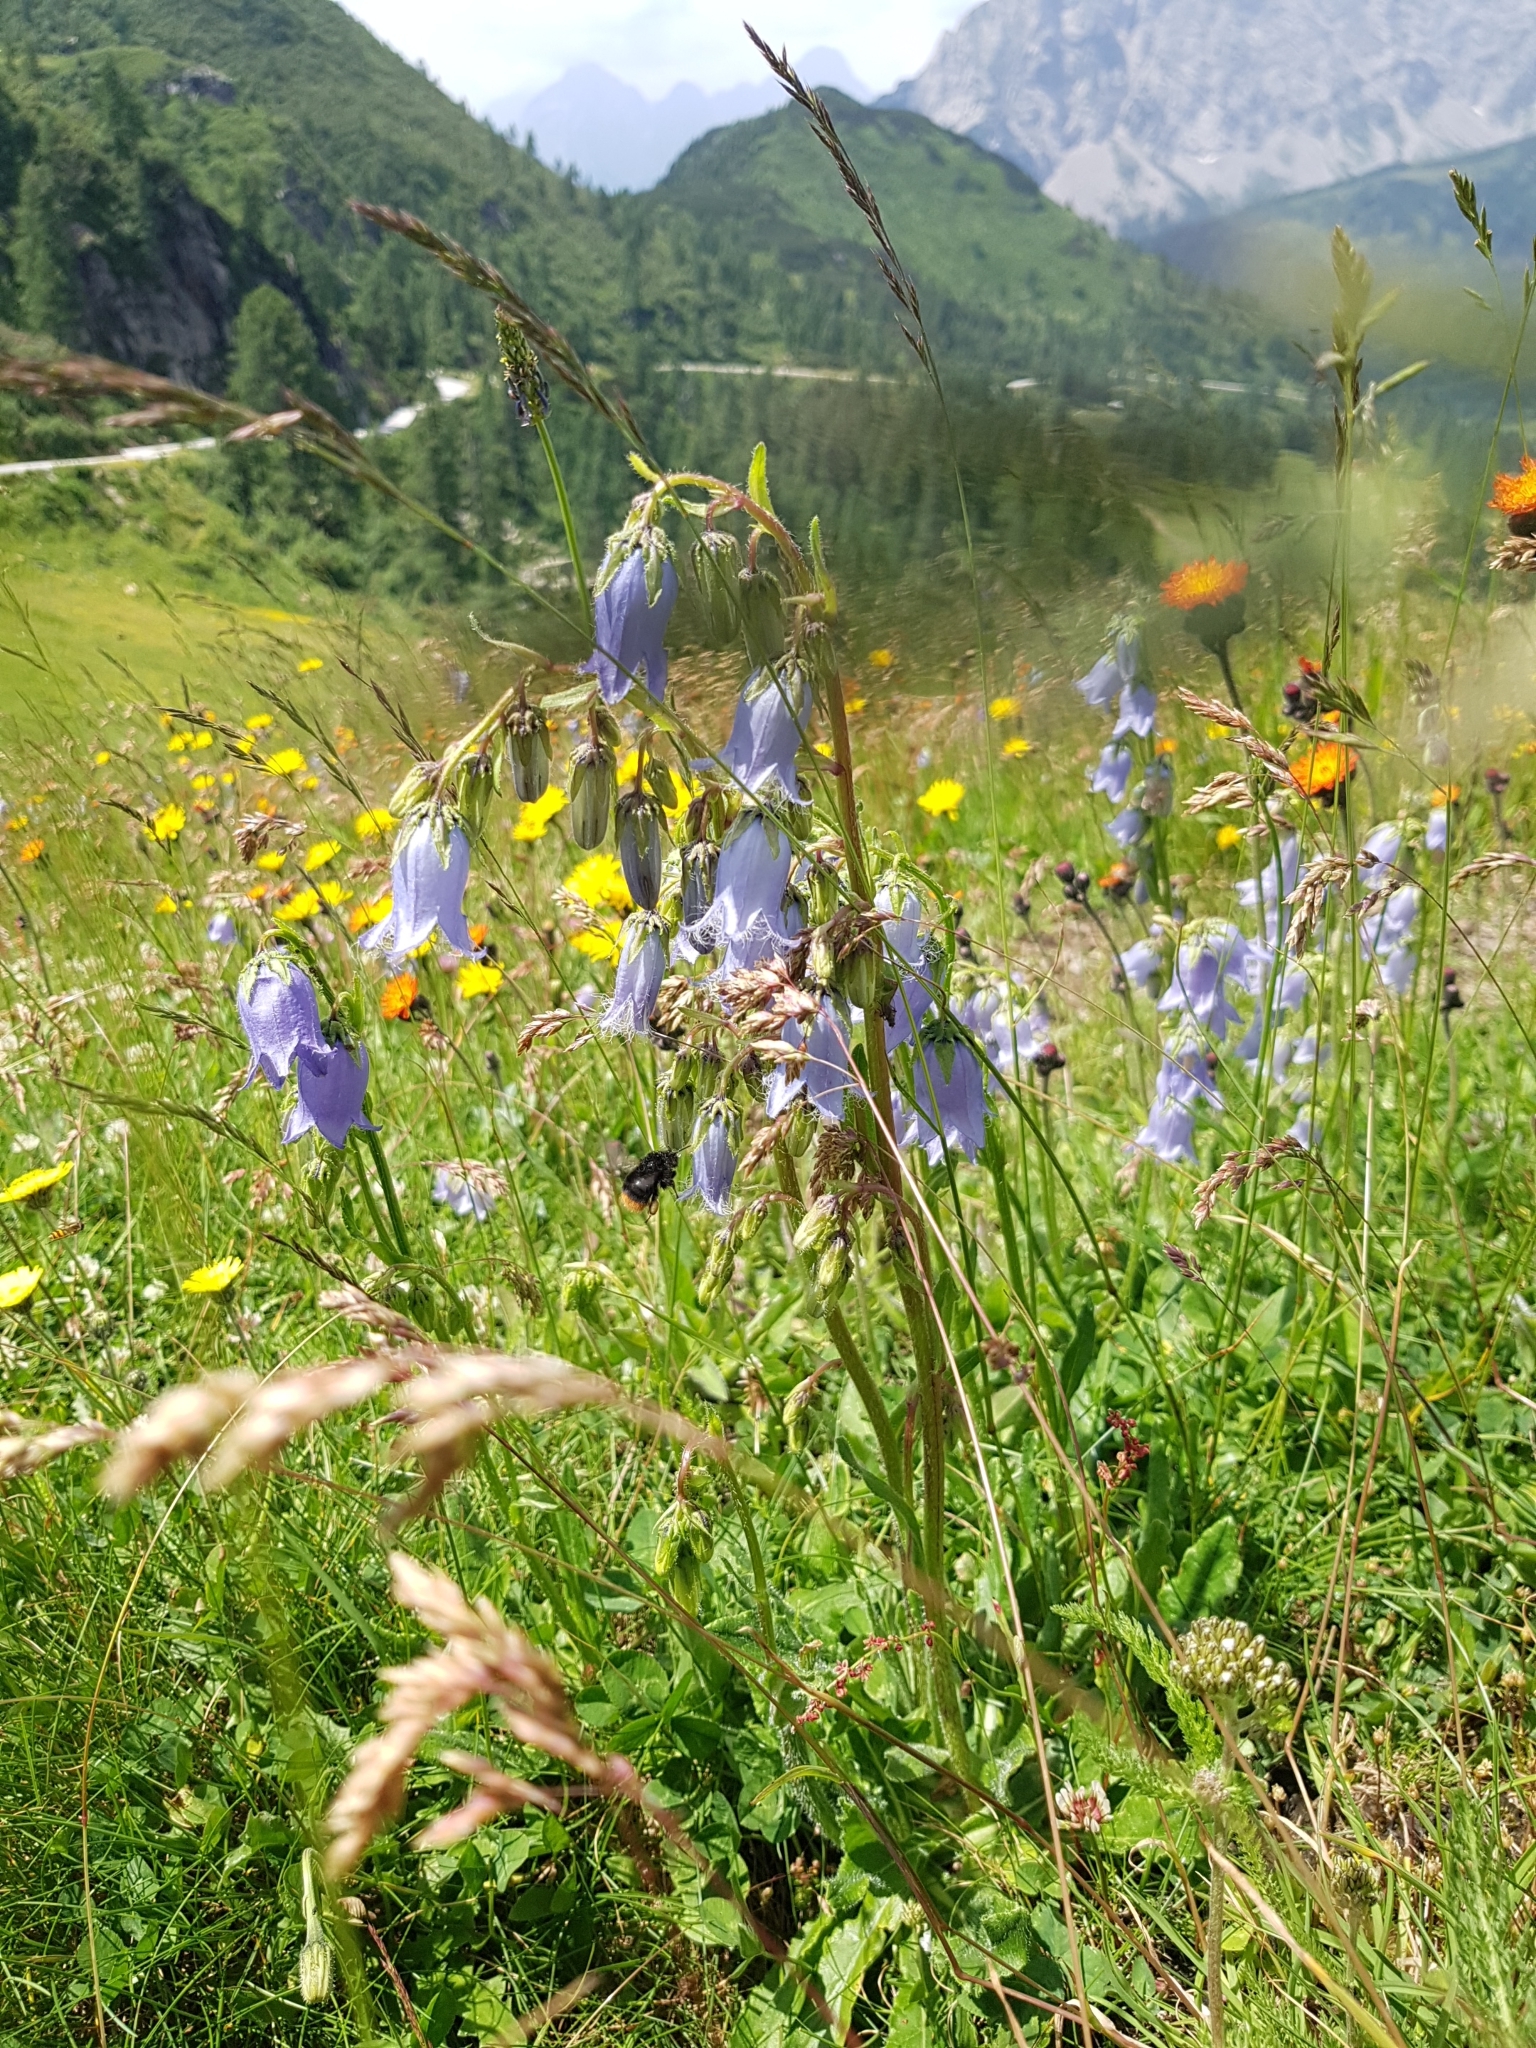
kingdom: Plantae
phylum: Tracheophyta
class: Magnoliopsida
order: Asterales
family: Campanulaceae
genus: Campanula
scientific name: Campanula barbata
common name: Bearded bellflower
